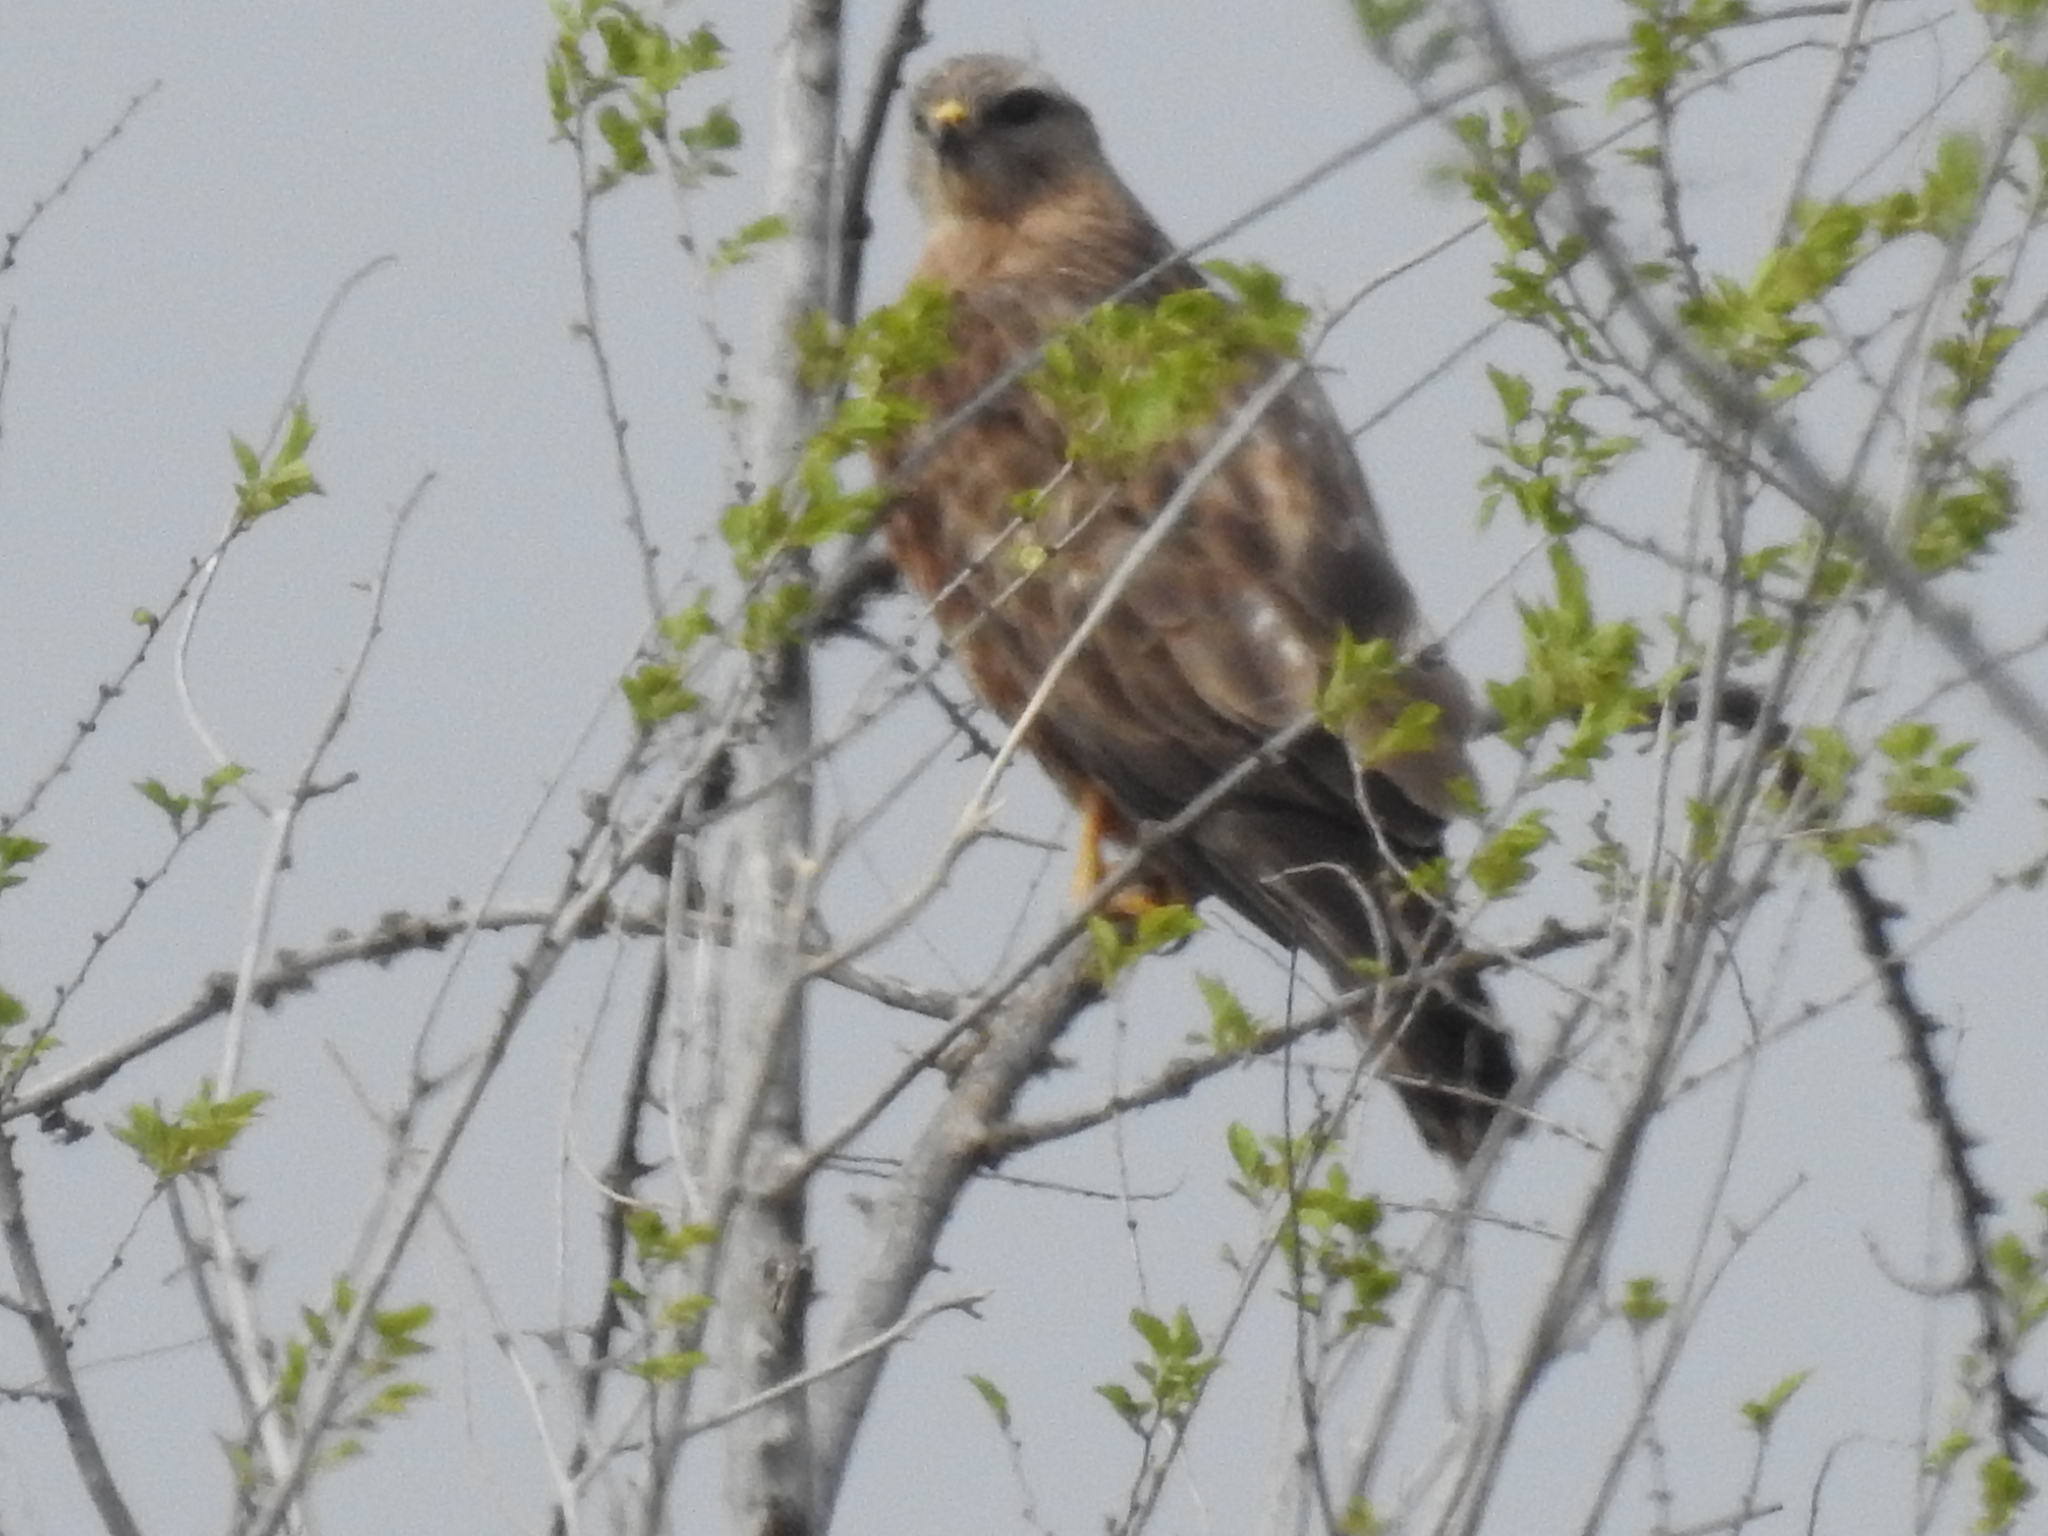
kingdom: Animalia
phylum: Chordata
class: Aves
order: Accipitriformes
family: Accipitridae
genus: Buteo
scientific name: Buteo buteo
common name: Common buzzard
